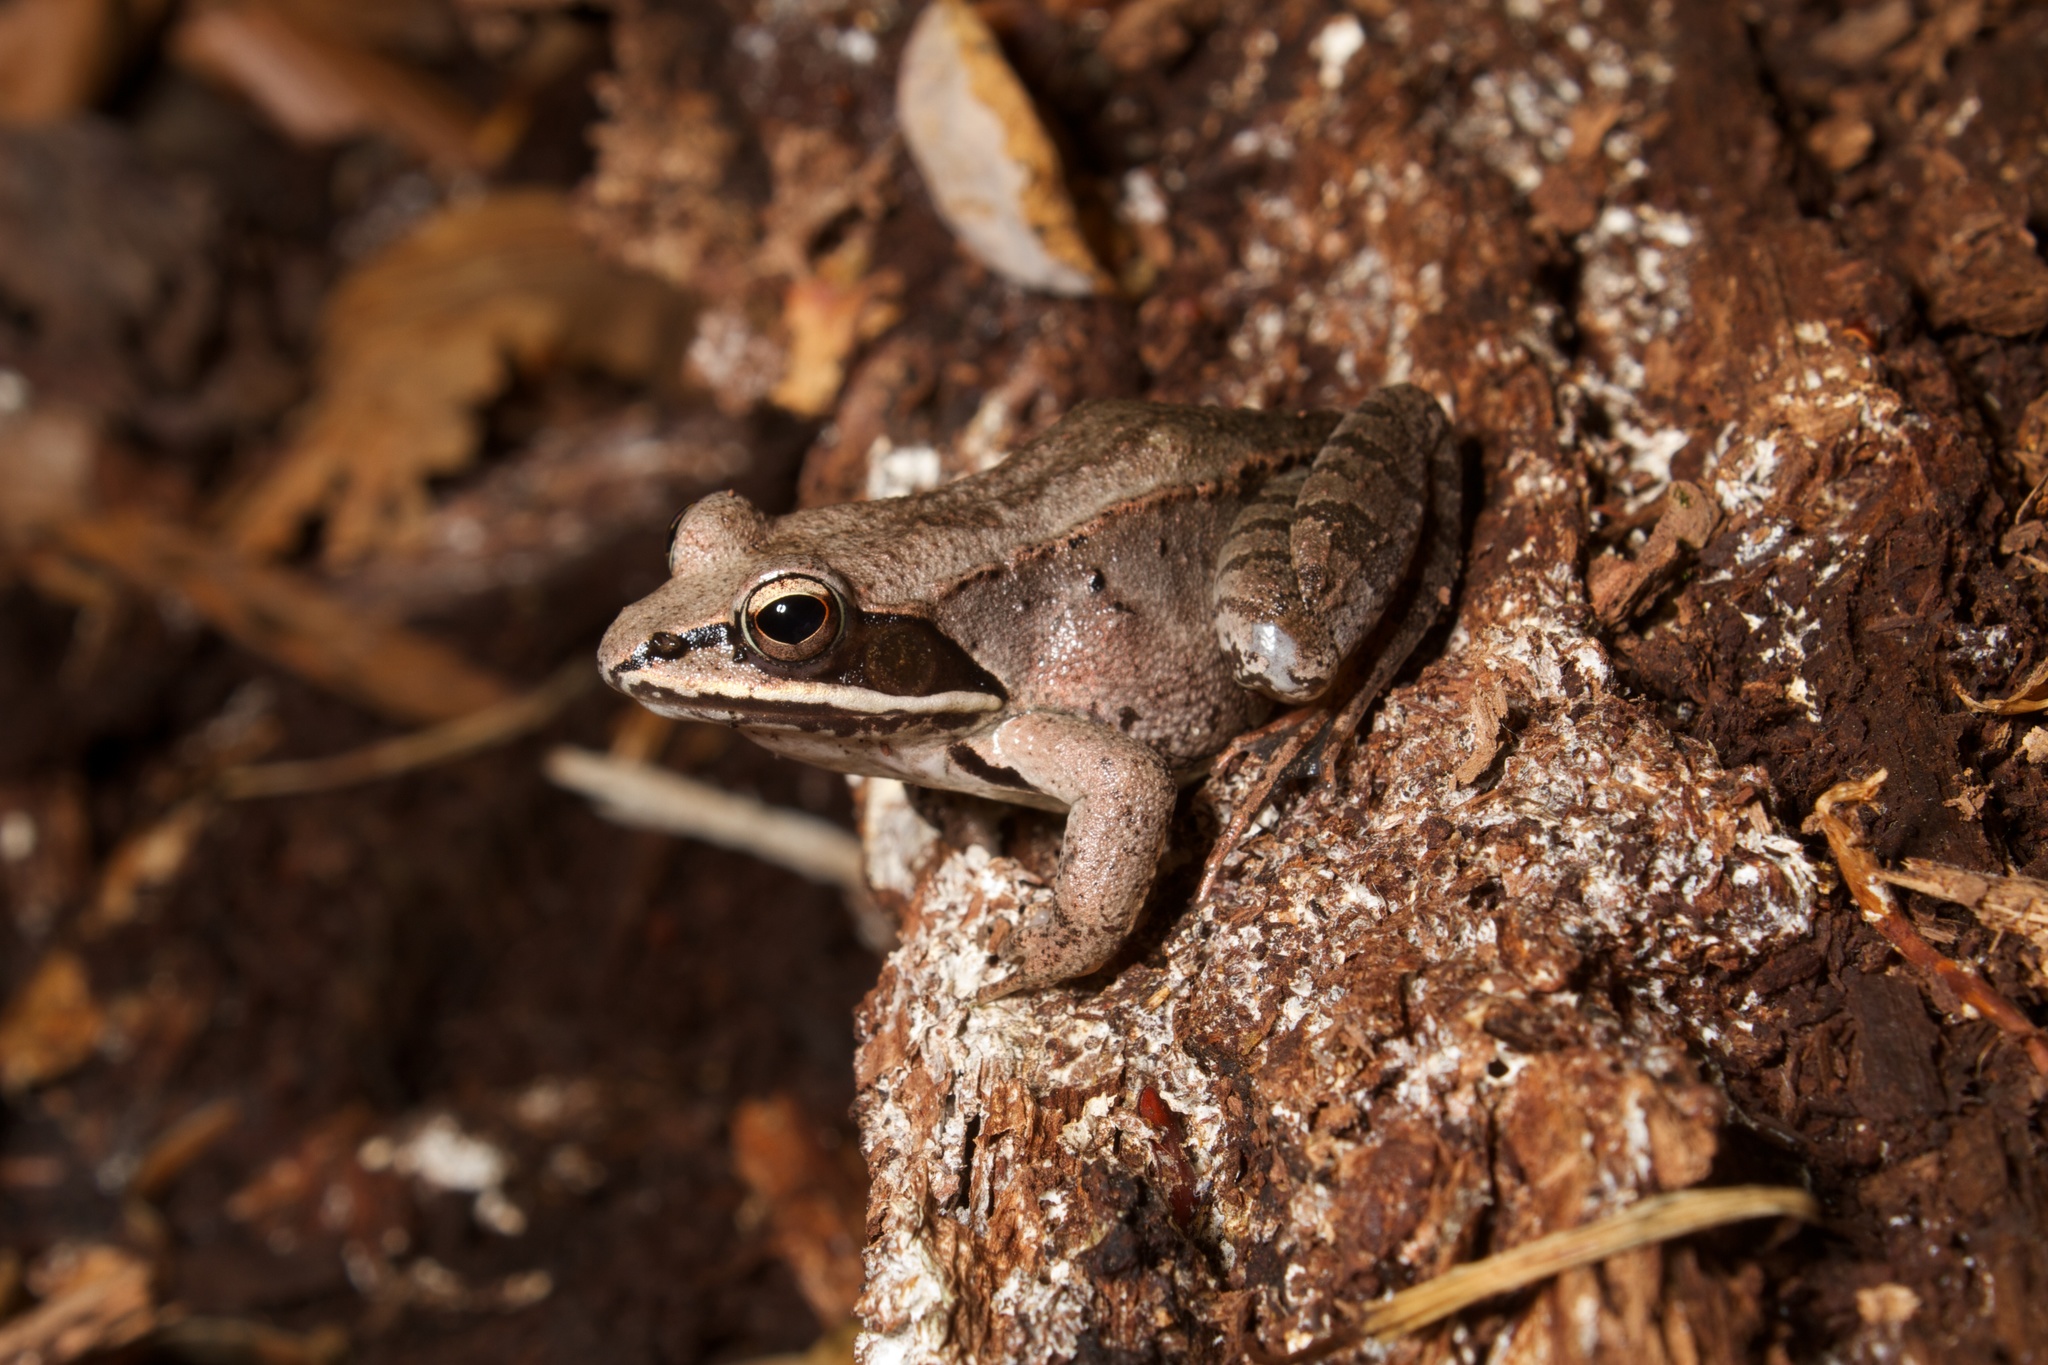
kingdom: Animalia
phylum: Chordata
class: Amphibia
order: Anura
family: Ranidae
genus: Lithobates
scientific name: Lithobates sylvaticus
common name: Wood frog
